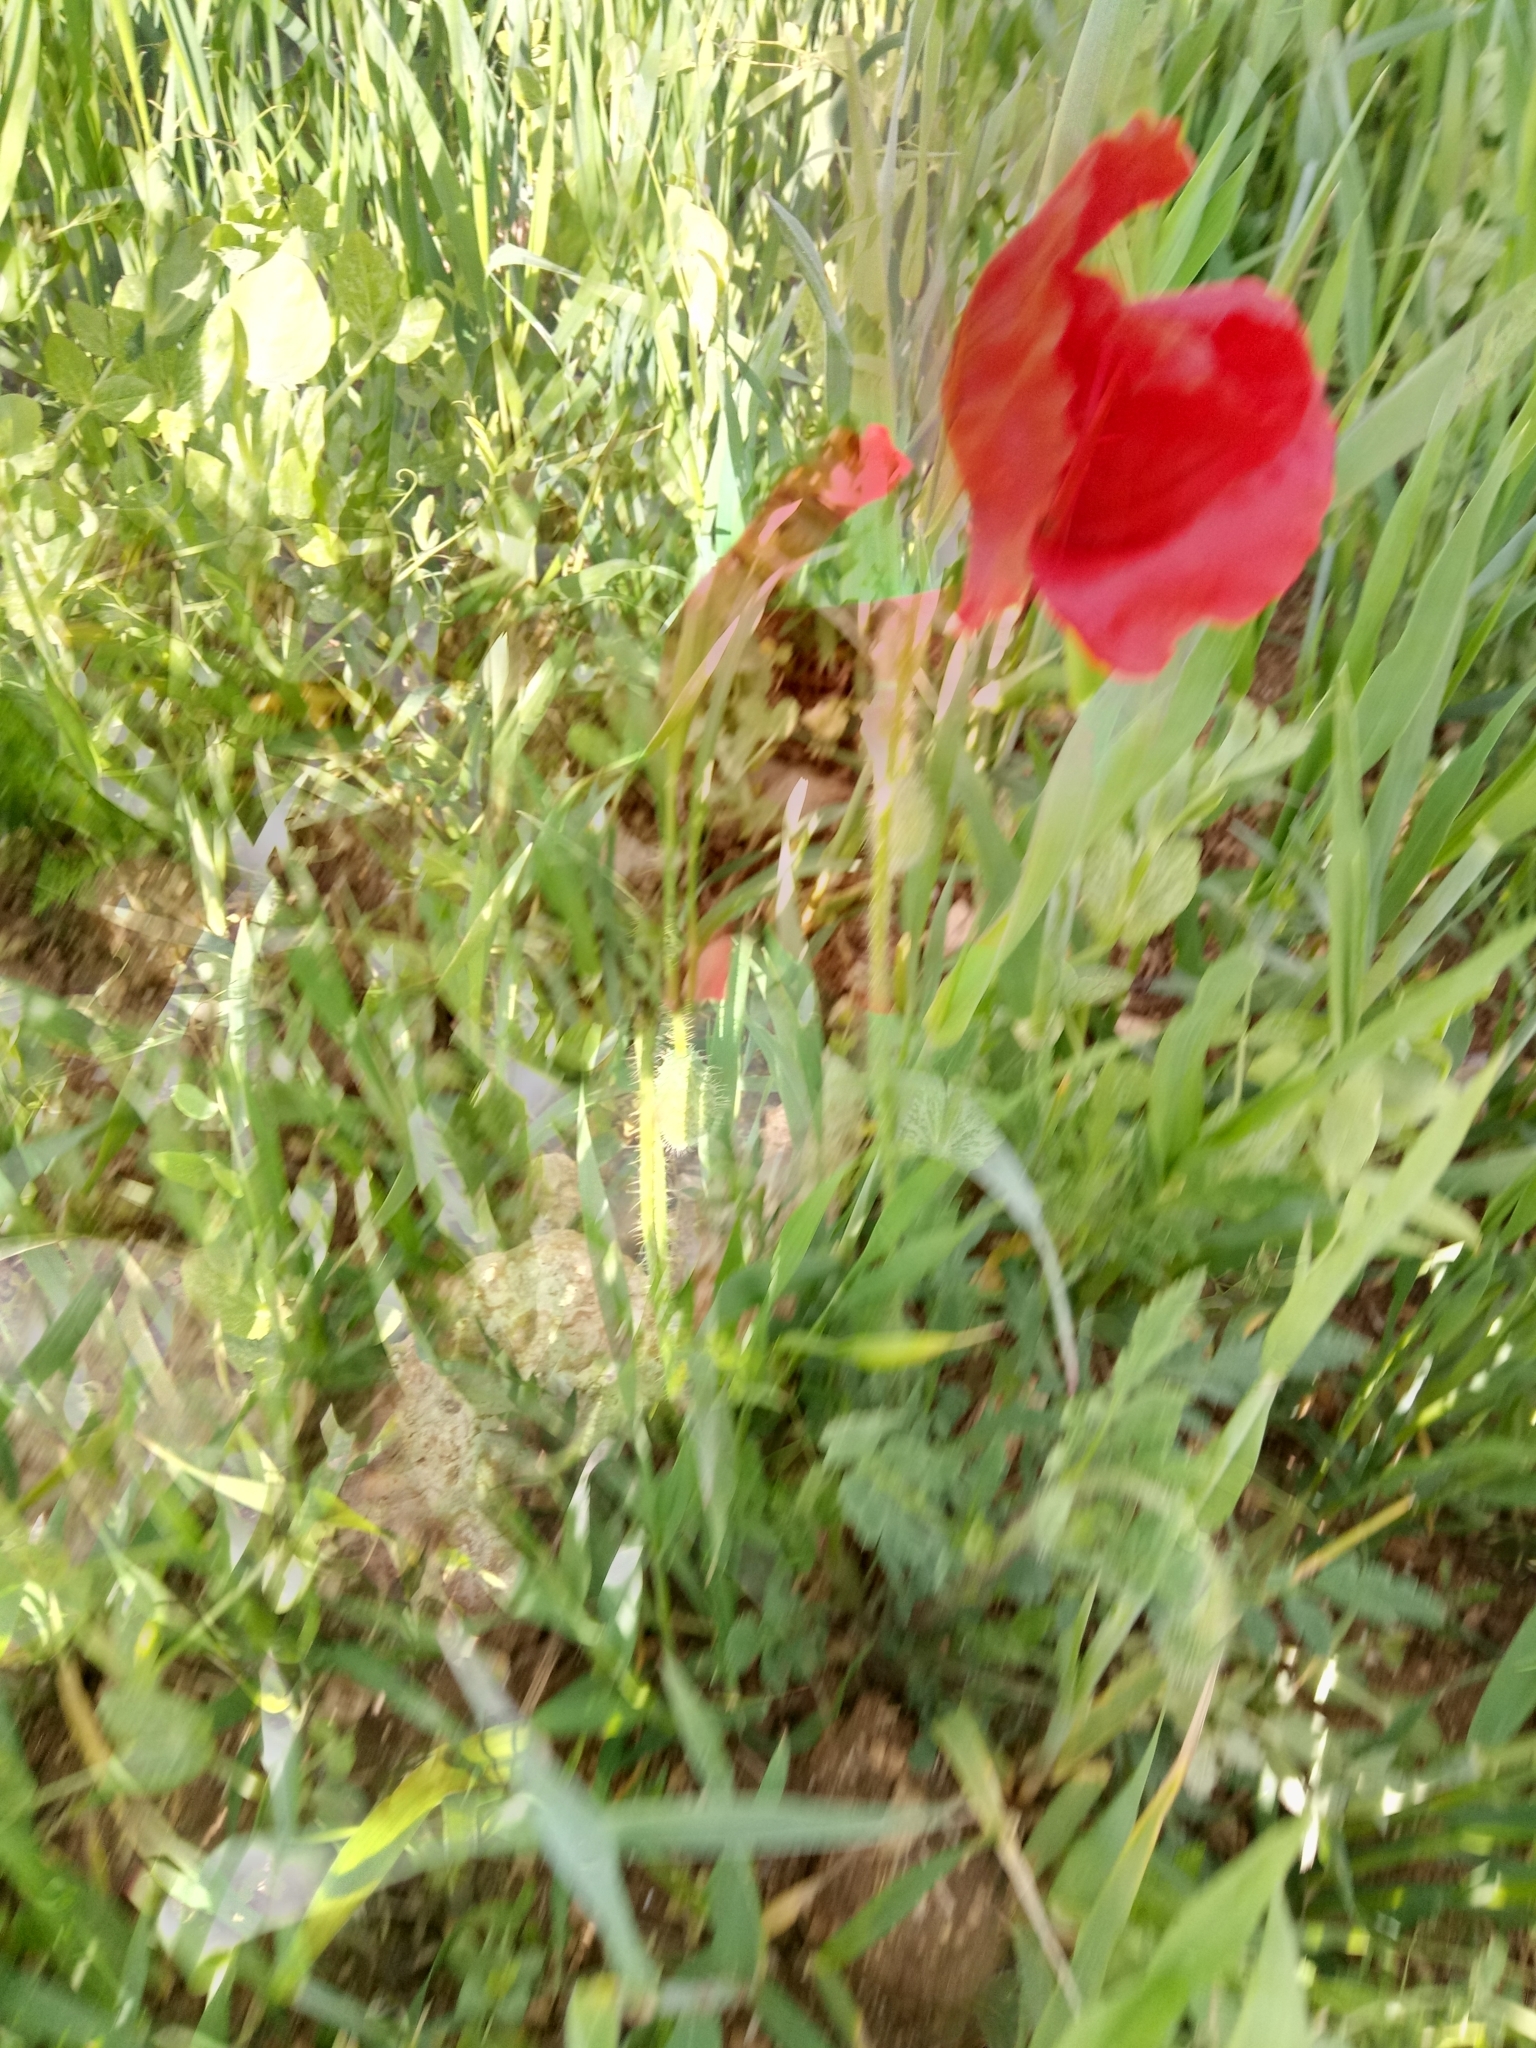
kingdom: Plantae
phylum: Tracheophyta
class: Magnoliopsida
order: Ranunculales
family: Papaveraceae
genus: Papaver
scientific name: Papaver rhoeas
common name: Corn poppy
